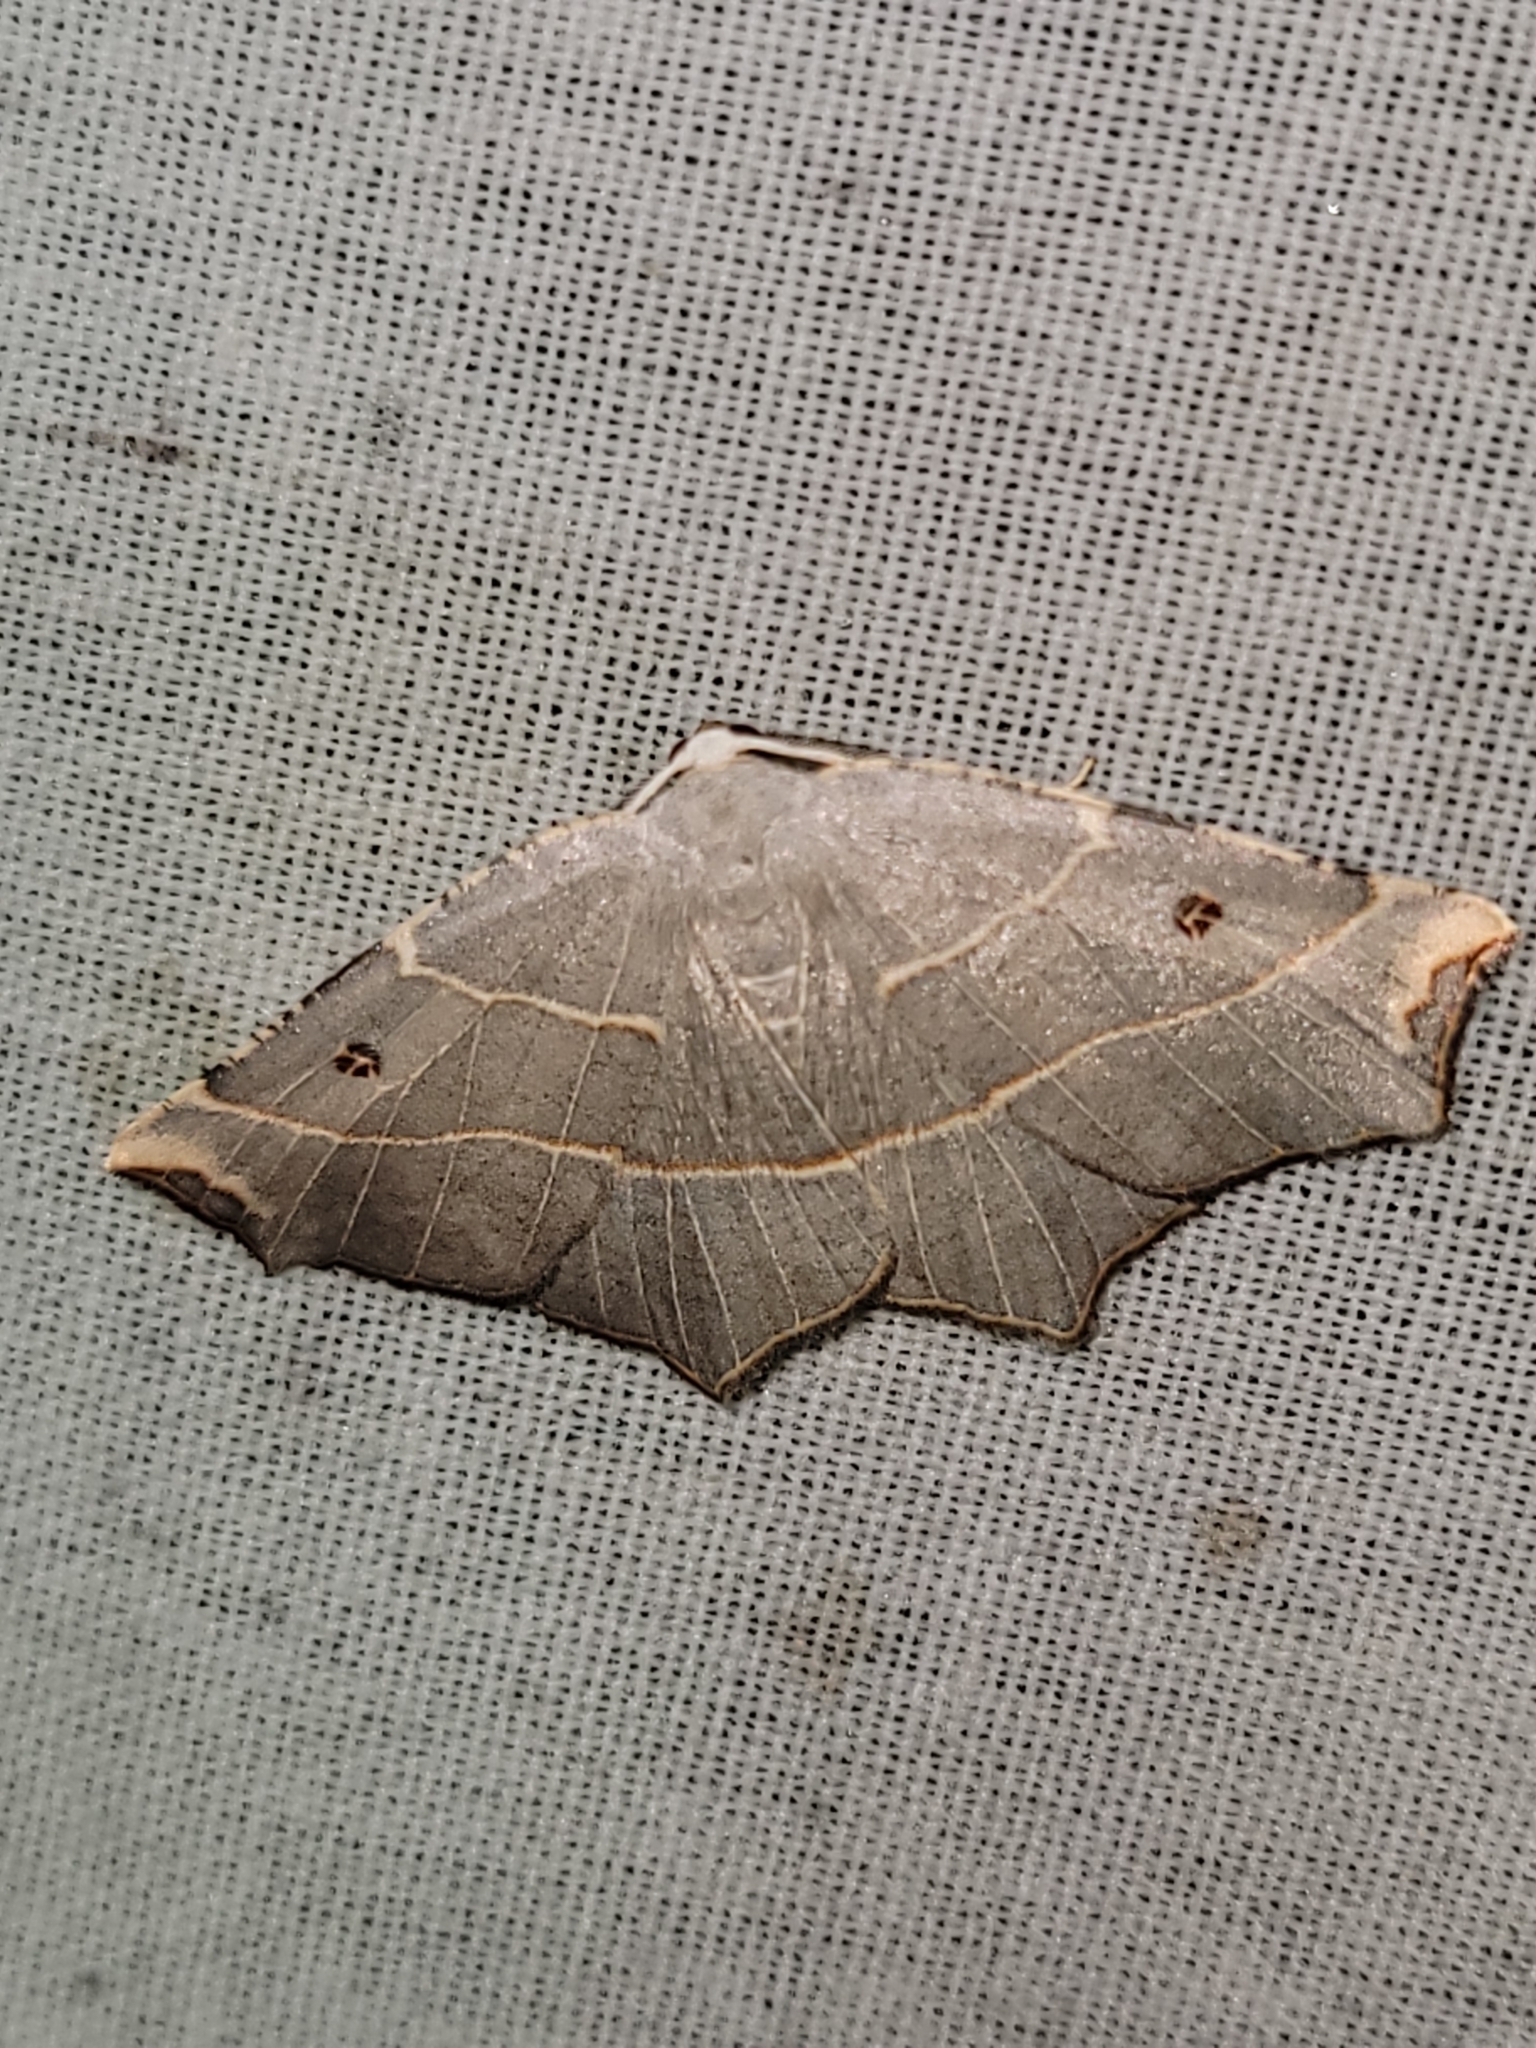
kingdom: Animalia
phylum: Arthropoda
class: Insecta
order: Lepidoptera
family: Geometridae
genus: Metanema
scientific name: Metanema inatomaria
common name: Pale metanema
